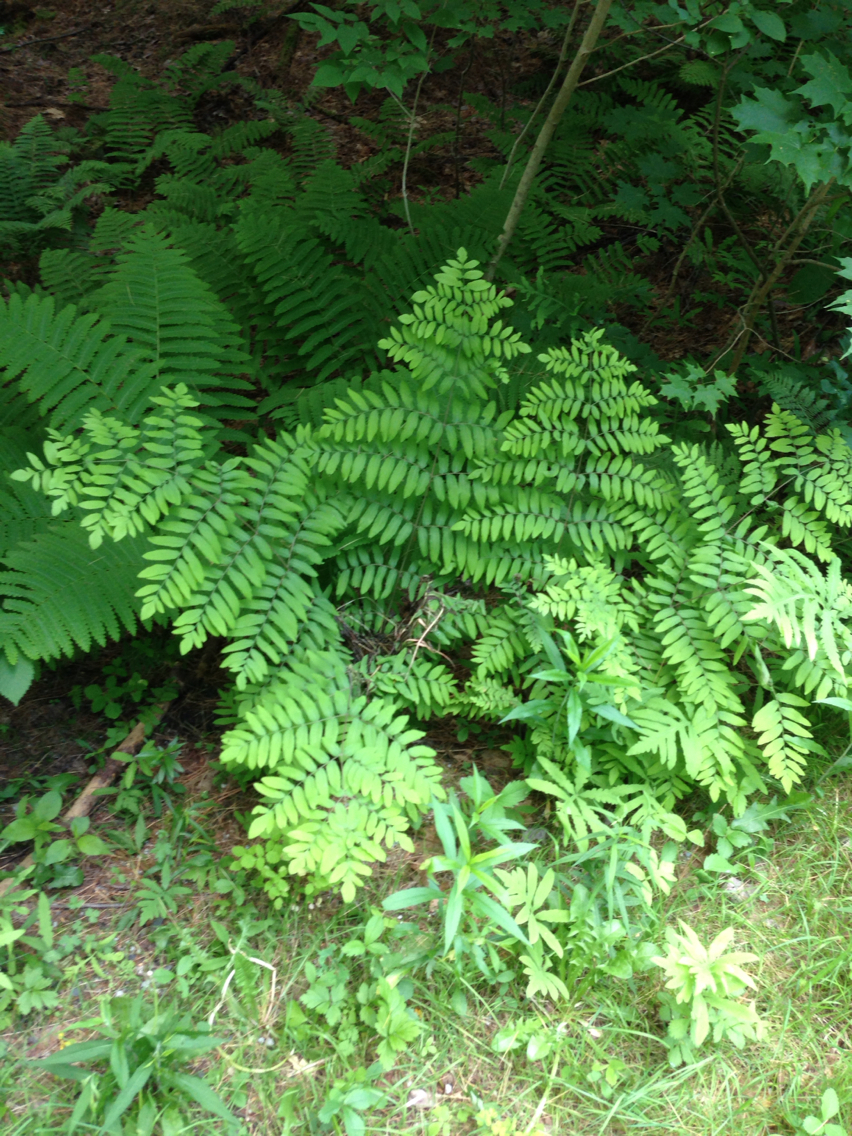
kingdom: Plantae
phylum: Tracheophyta
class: Polypodiopsida
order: Osmundales
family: Osmundaceae
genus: Osmunda
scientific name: Osmunda spectabilis
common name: American royal fern
